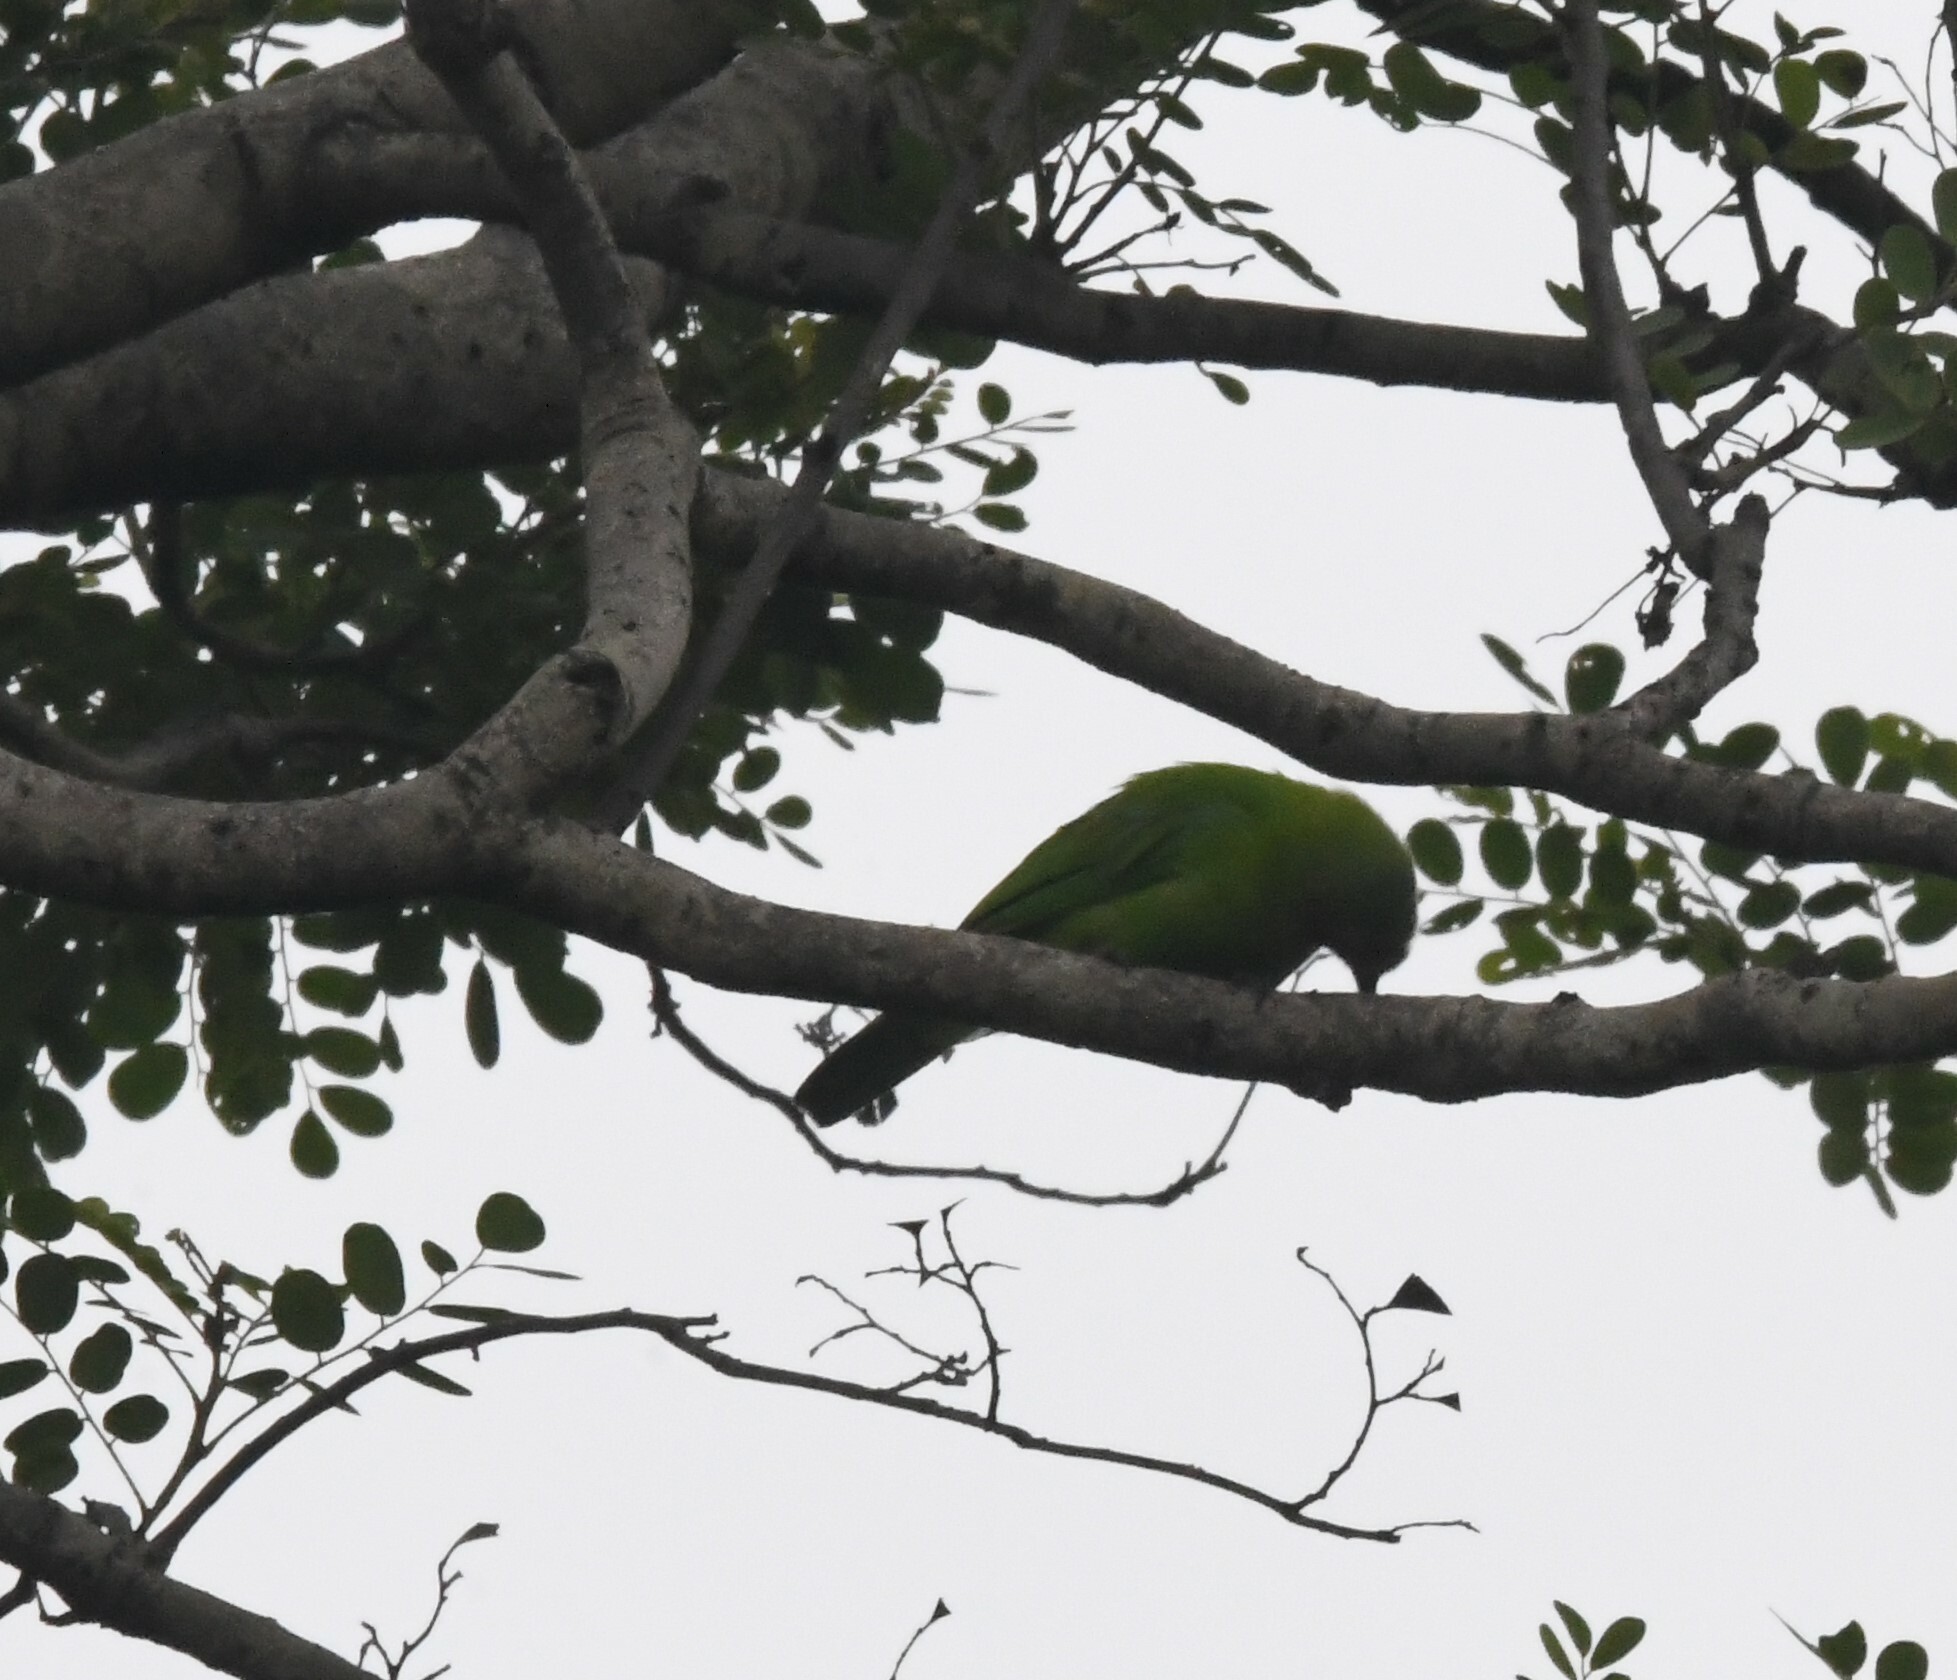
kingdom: Animalia
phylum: Chordata
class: Aves
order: Passeriformes
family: Chloropseidae
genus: Chloropsis
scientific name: Chloropsis jerdoni
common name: Jerdon's leafbird
